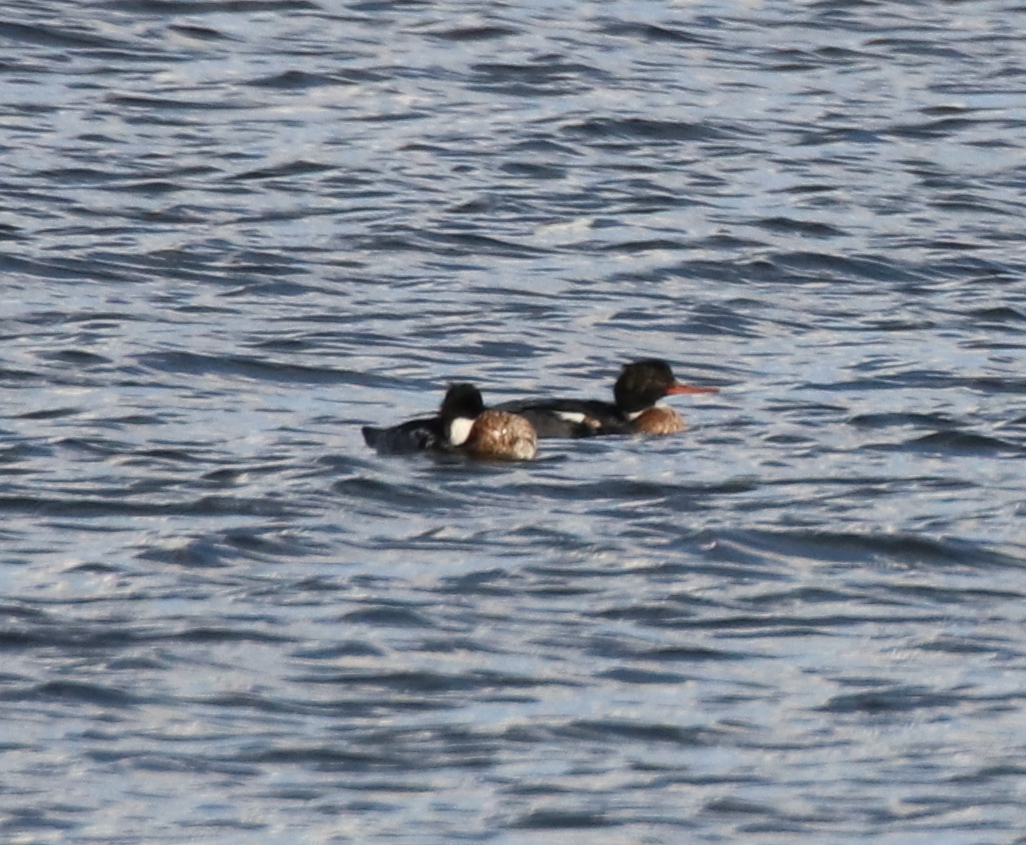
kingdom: Animalia
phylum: Chordata
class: Aves
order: Anseriformes
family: Anatidae
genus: Mergus
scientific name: Mergus serrator
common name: Red-breasted merganser
